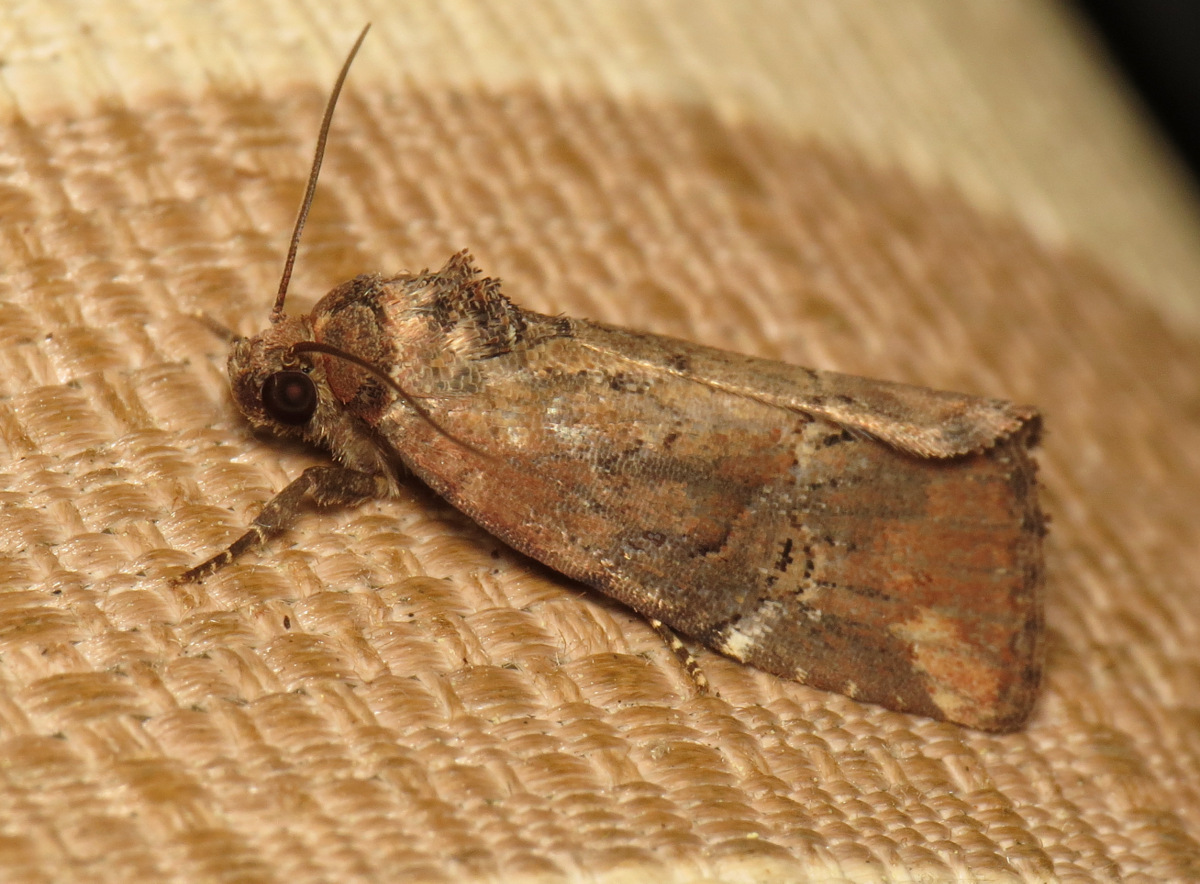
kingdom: Animalia
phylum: Arthropoda
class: Insecta
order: Lepidoptera
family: Noctuidae
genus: Elaphria
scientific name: Elaphria versicolor
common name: Fir harlequin
